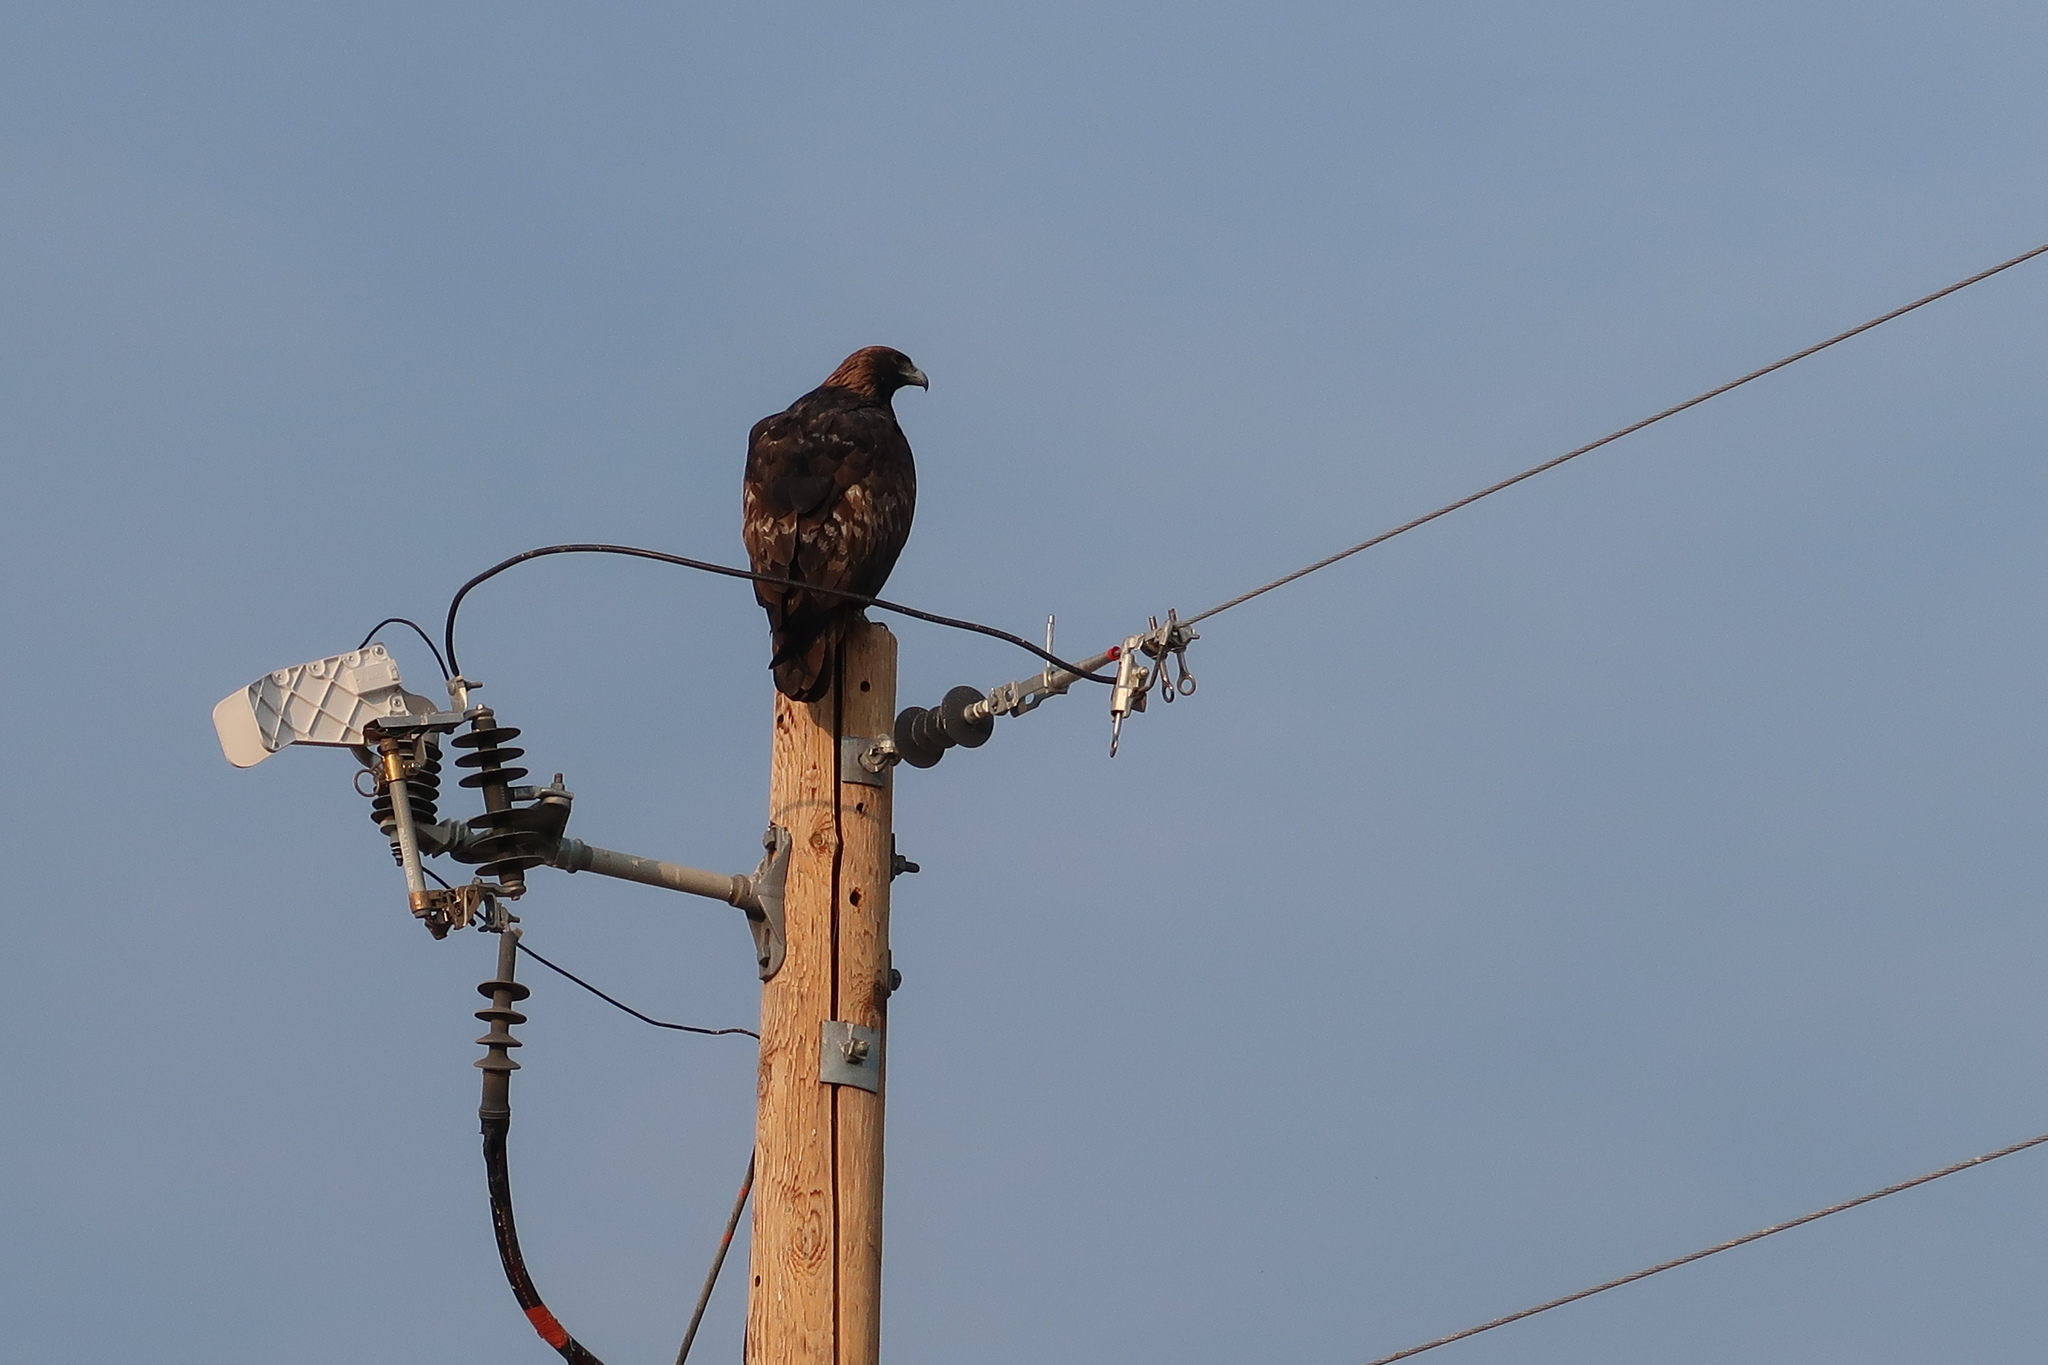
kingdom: Animalia
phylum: Chordata
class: Aves
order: Accipitriformes
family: Accipitridae
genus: Aquila
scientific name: Aquila chrysaetos
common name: Golden eagle
